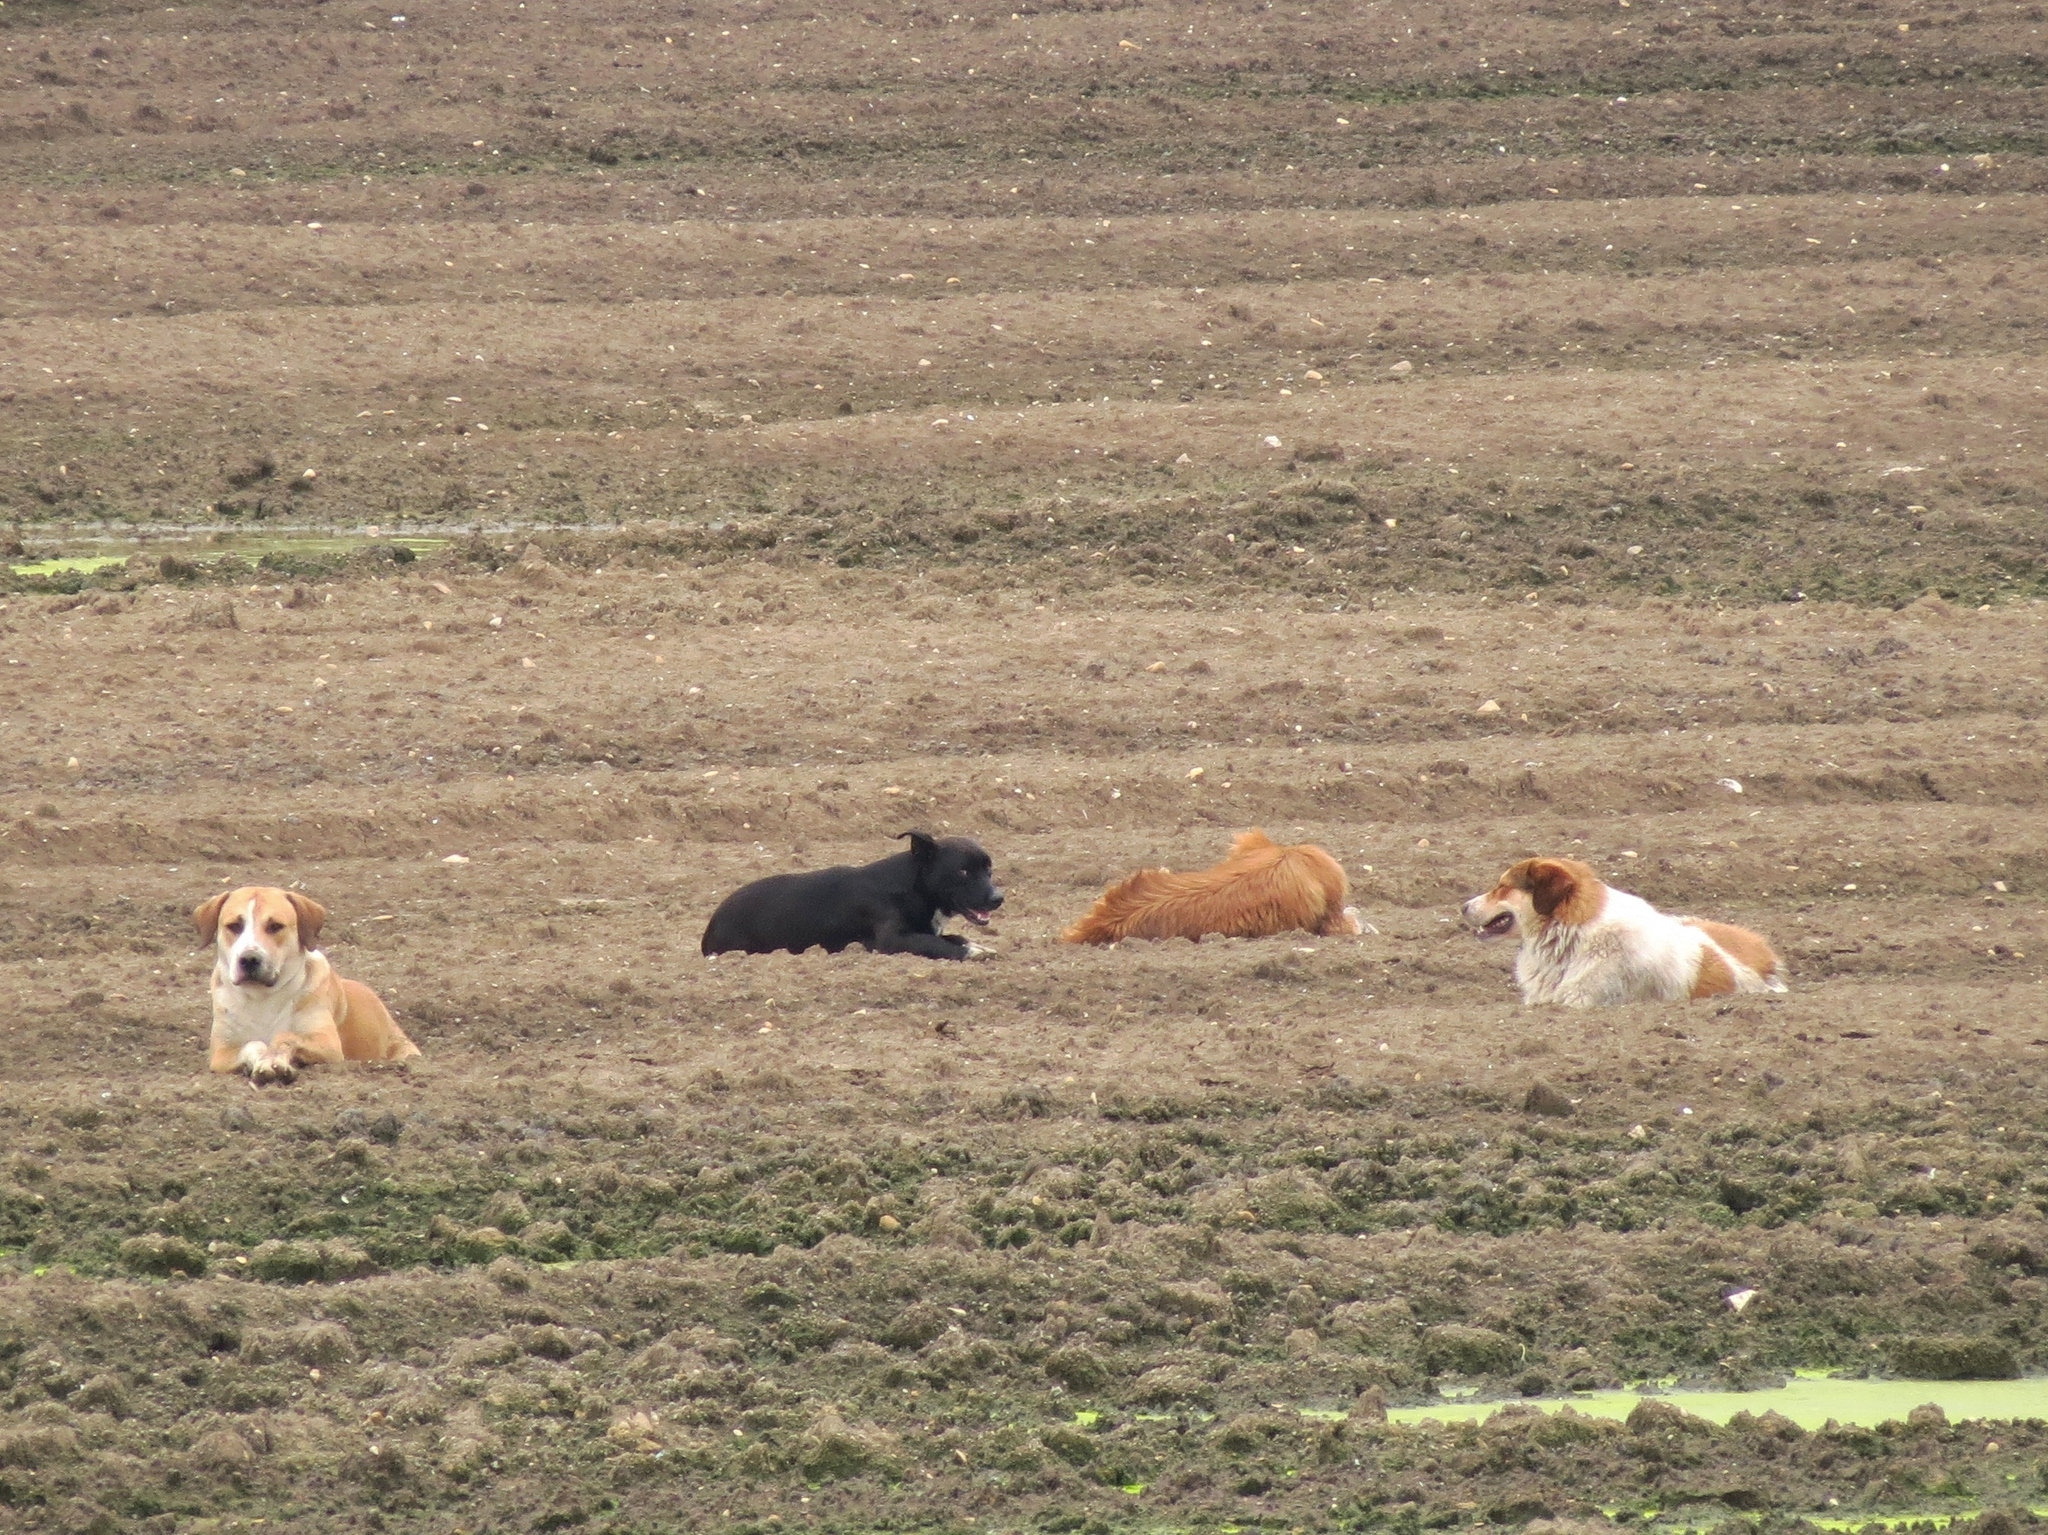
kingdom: Animalia
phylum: Chordata
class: Mammalia
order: Carnivora
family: Canidae
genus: Canis
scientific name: Canis lupus
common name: Gray wolf
